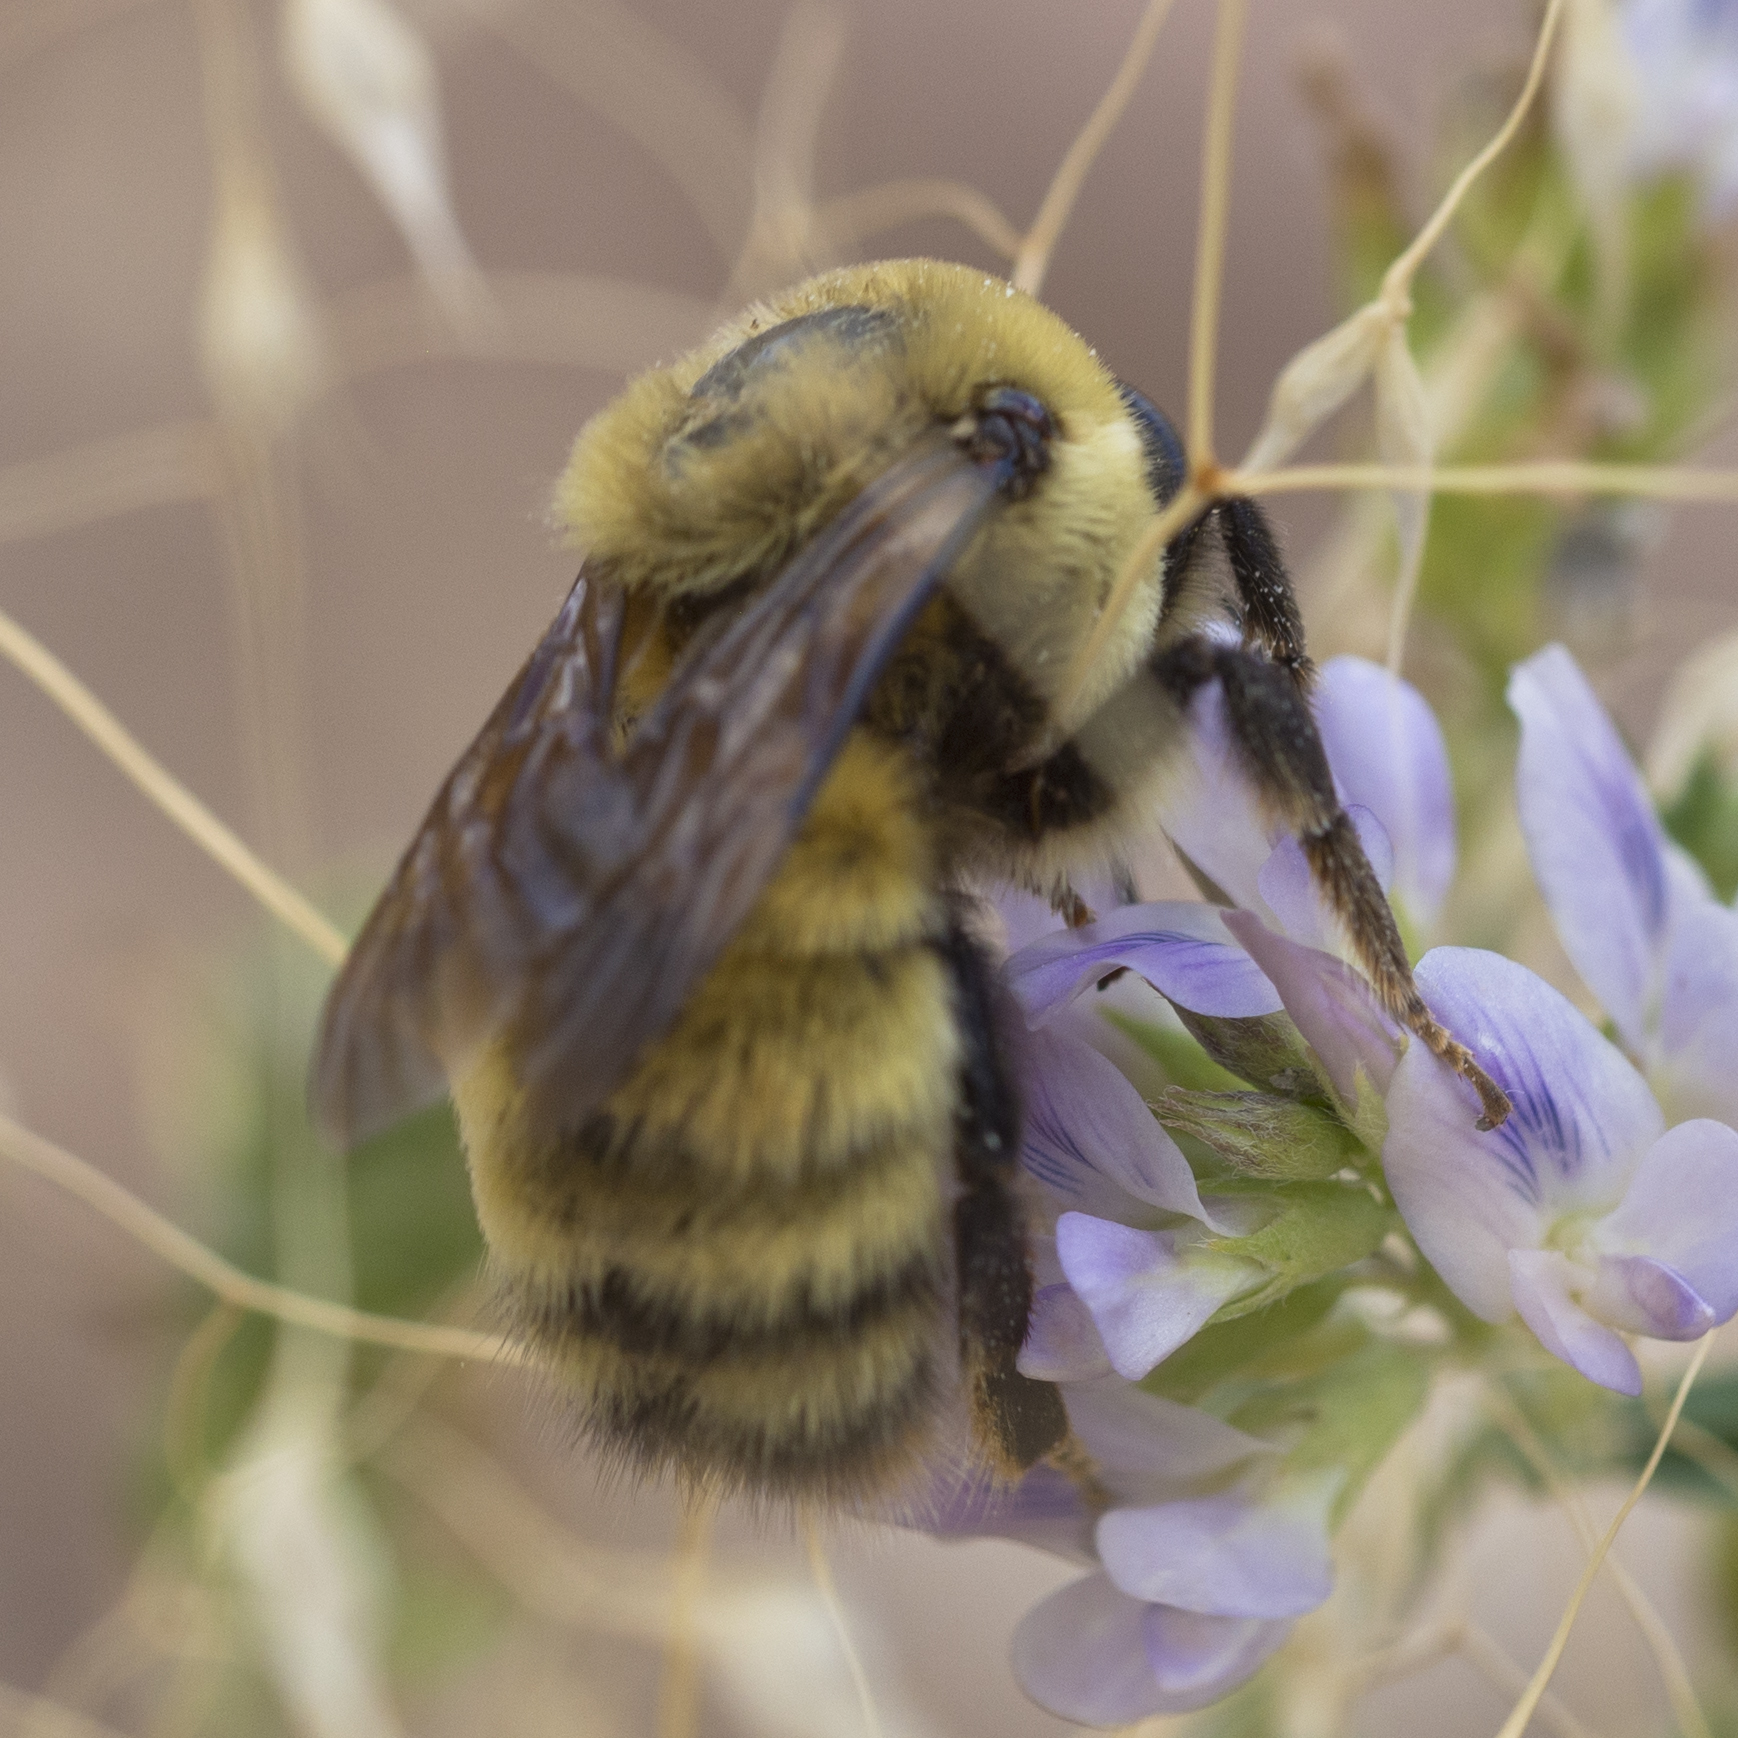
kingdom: Animalia
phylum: Arthropoda
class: Insecta
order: Hymenoptera
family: Apidae
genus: Bombus
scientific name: Bombus
